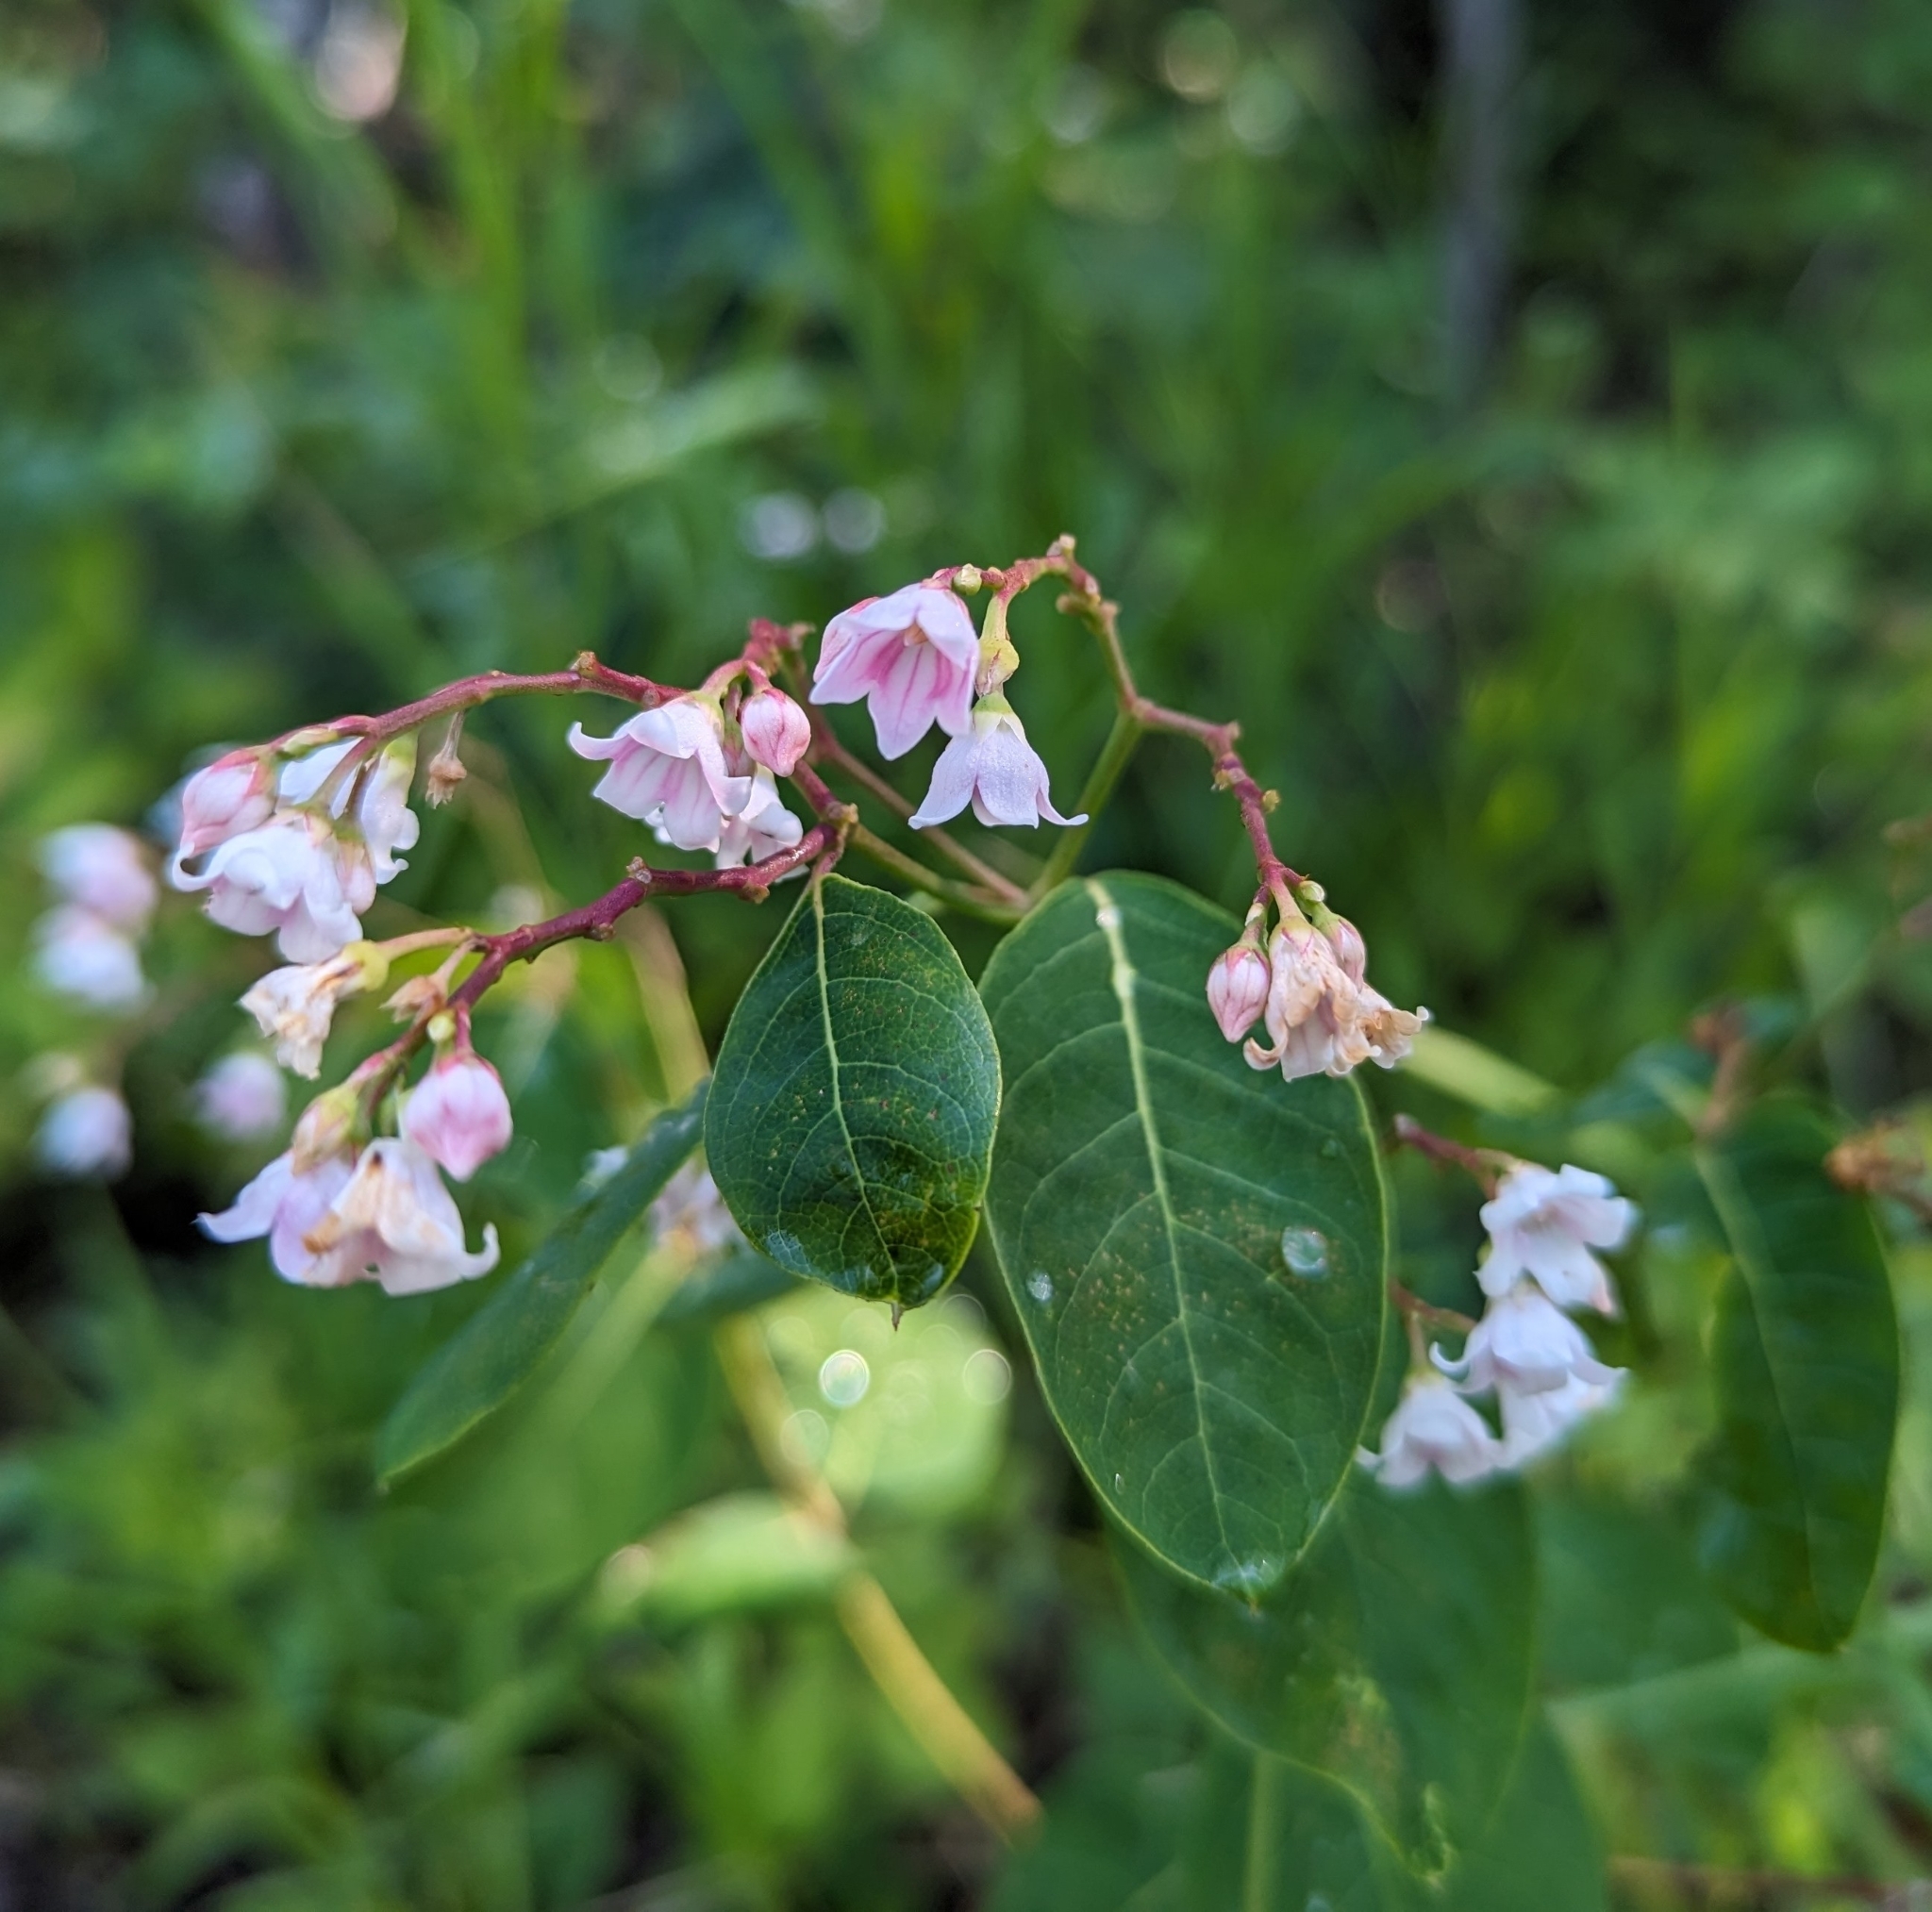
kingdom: Plantae
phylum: Tracheophyta
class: Magnoliopsida
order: Gentianales
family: Apocynaceae
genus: Apocynum
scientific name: Apocynum androsaemifolium
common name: Spreading dogbane
